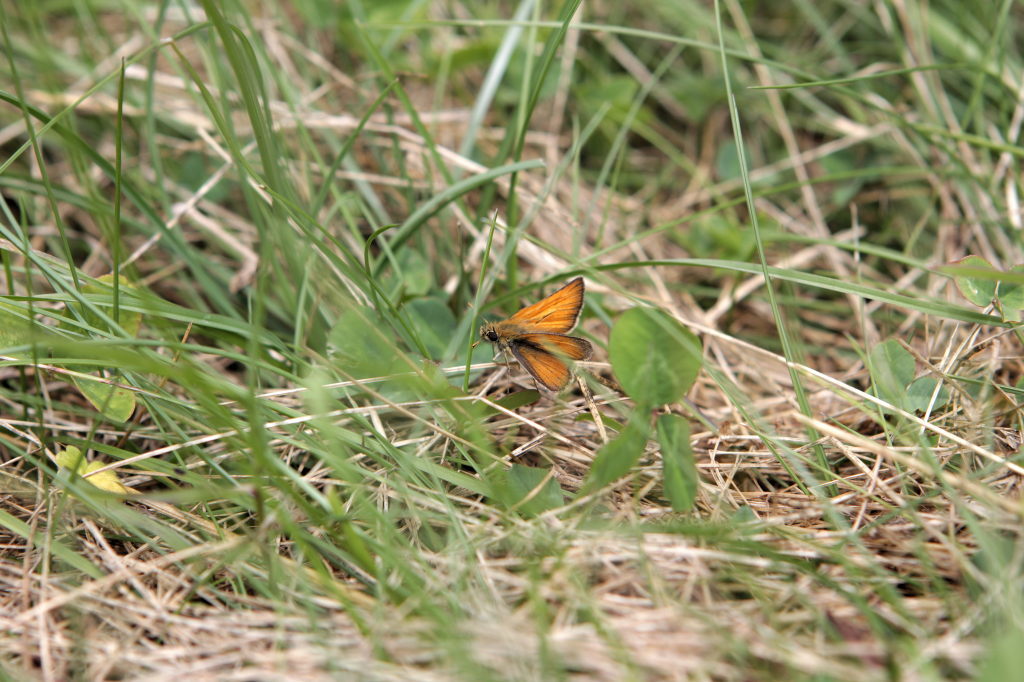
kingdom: Animalia
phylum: Arthropoda
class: Insecta
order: Lepidoptera
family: Hesperiidae
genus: Thymelicus
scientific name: Thymelicus sylvestris
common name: Small skipper
